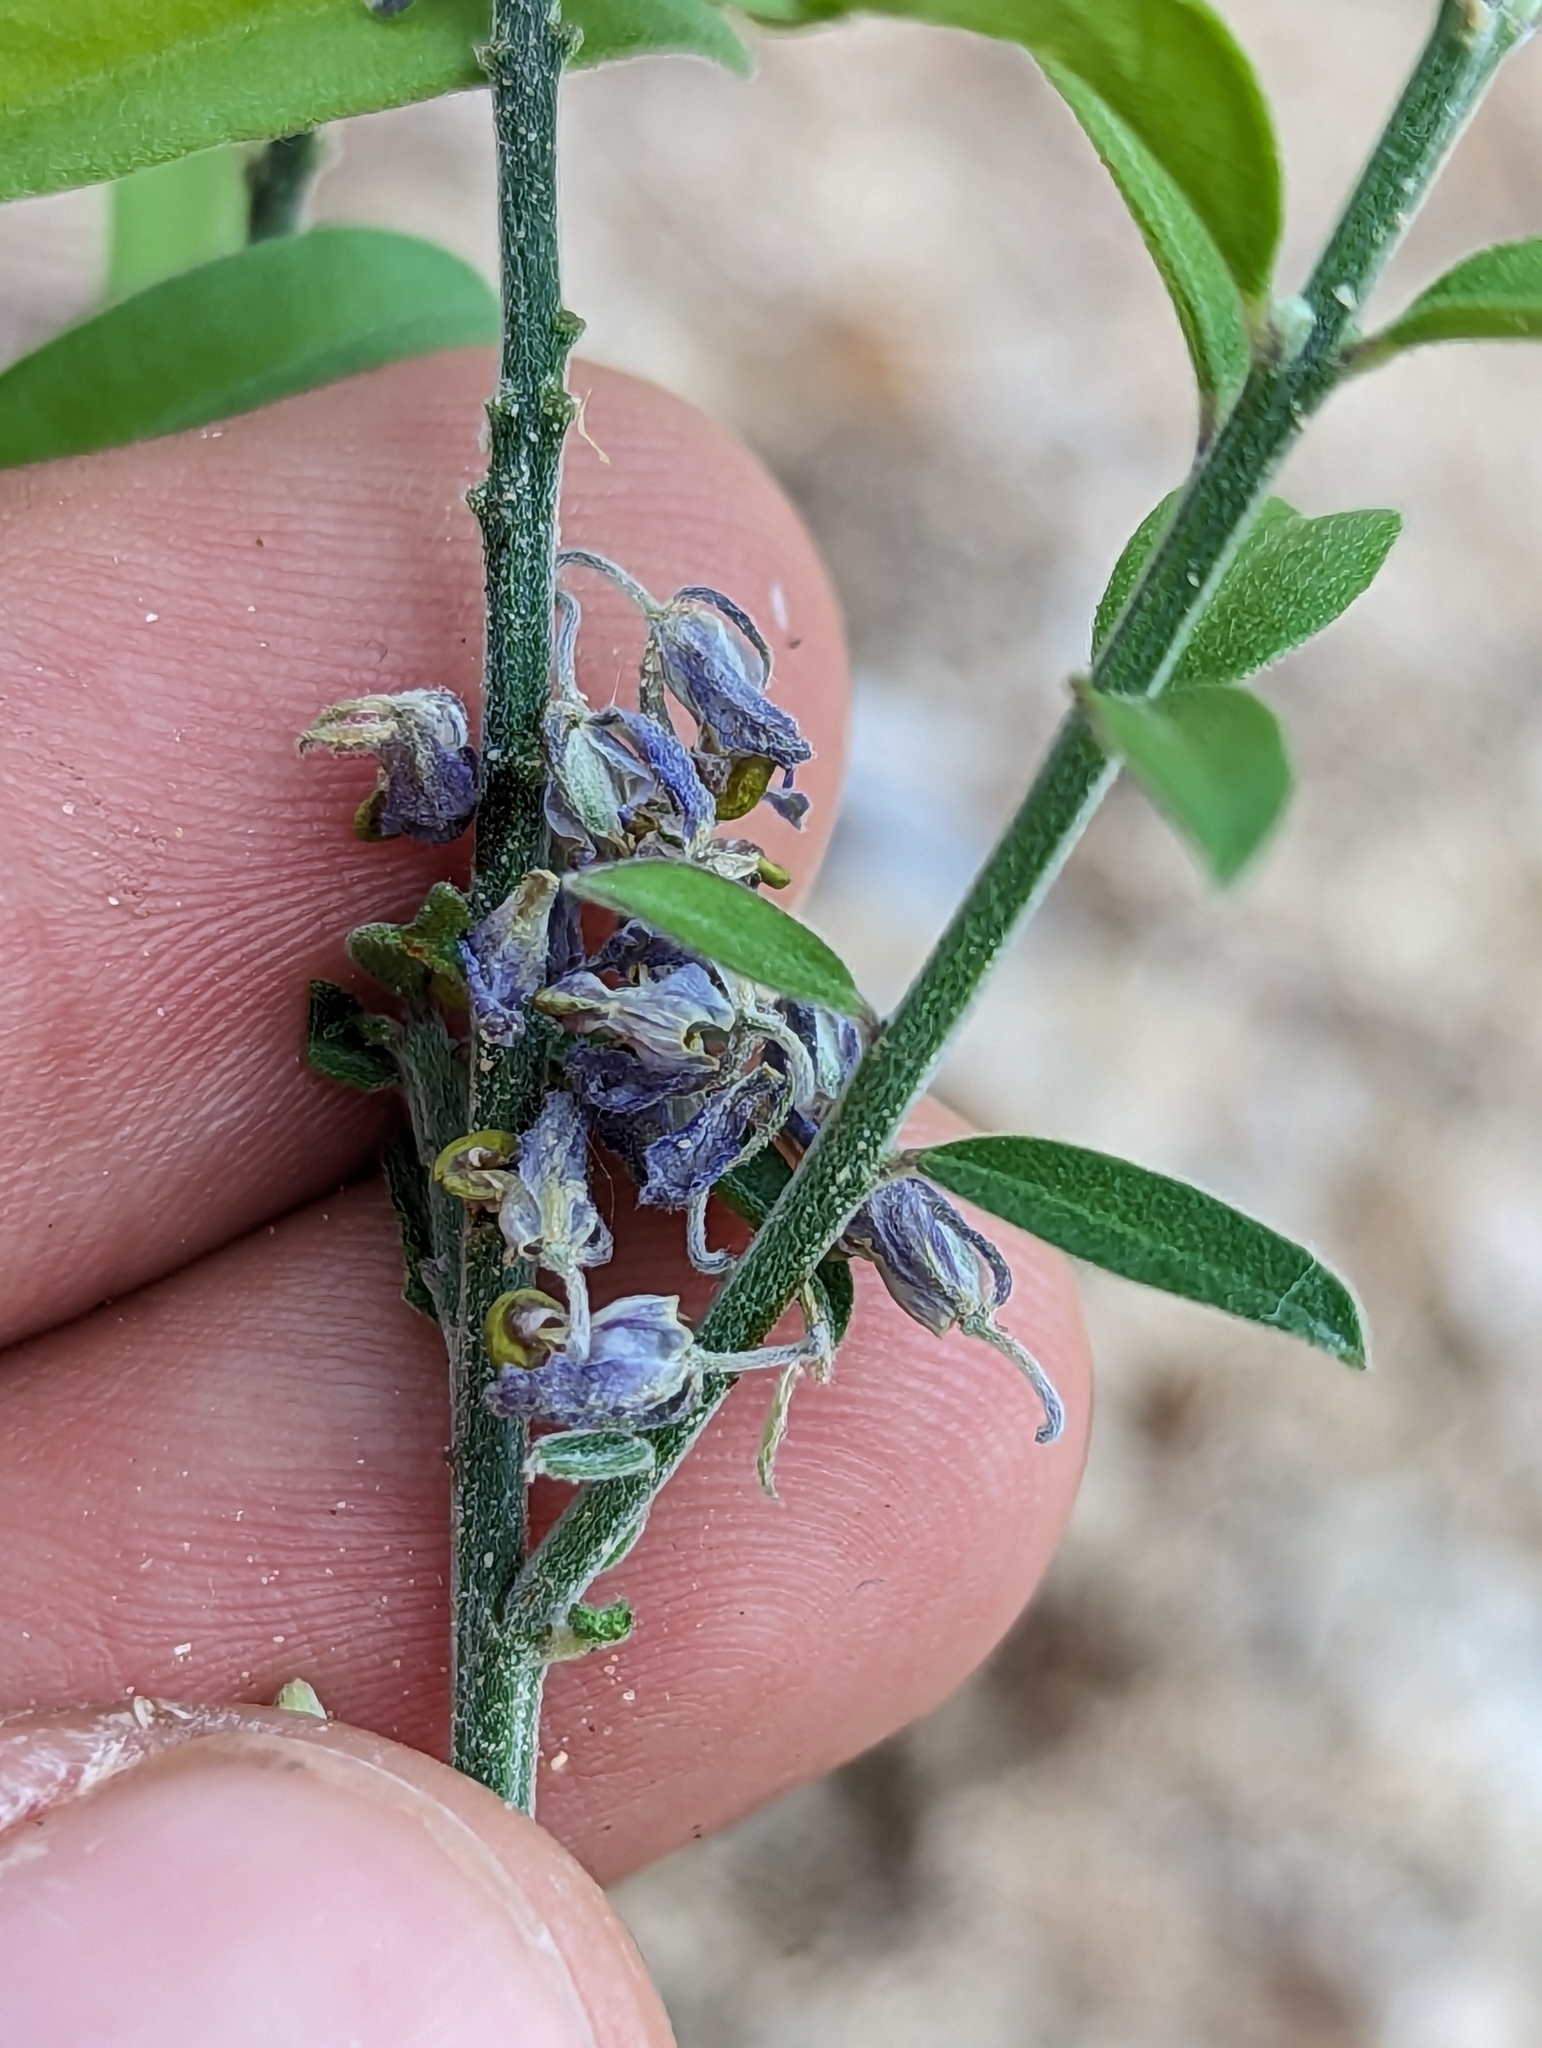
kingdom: Plantae
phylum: Tracheophyta
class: Magnoliopsida
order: Fabales
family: Polygalaceae
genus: Polygala
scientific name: Polygala magdalenae
